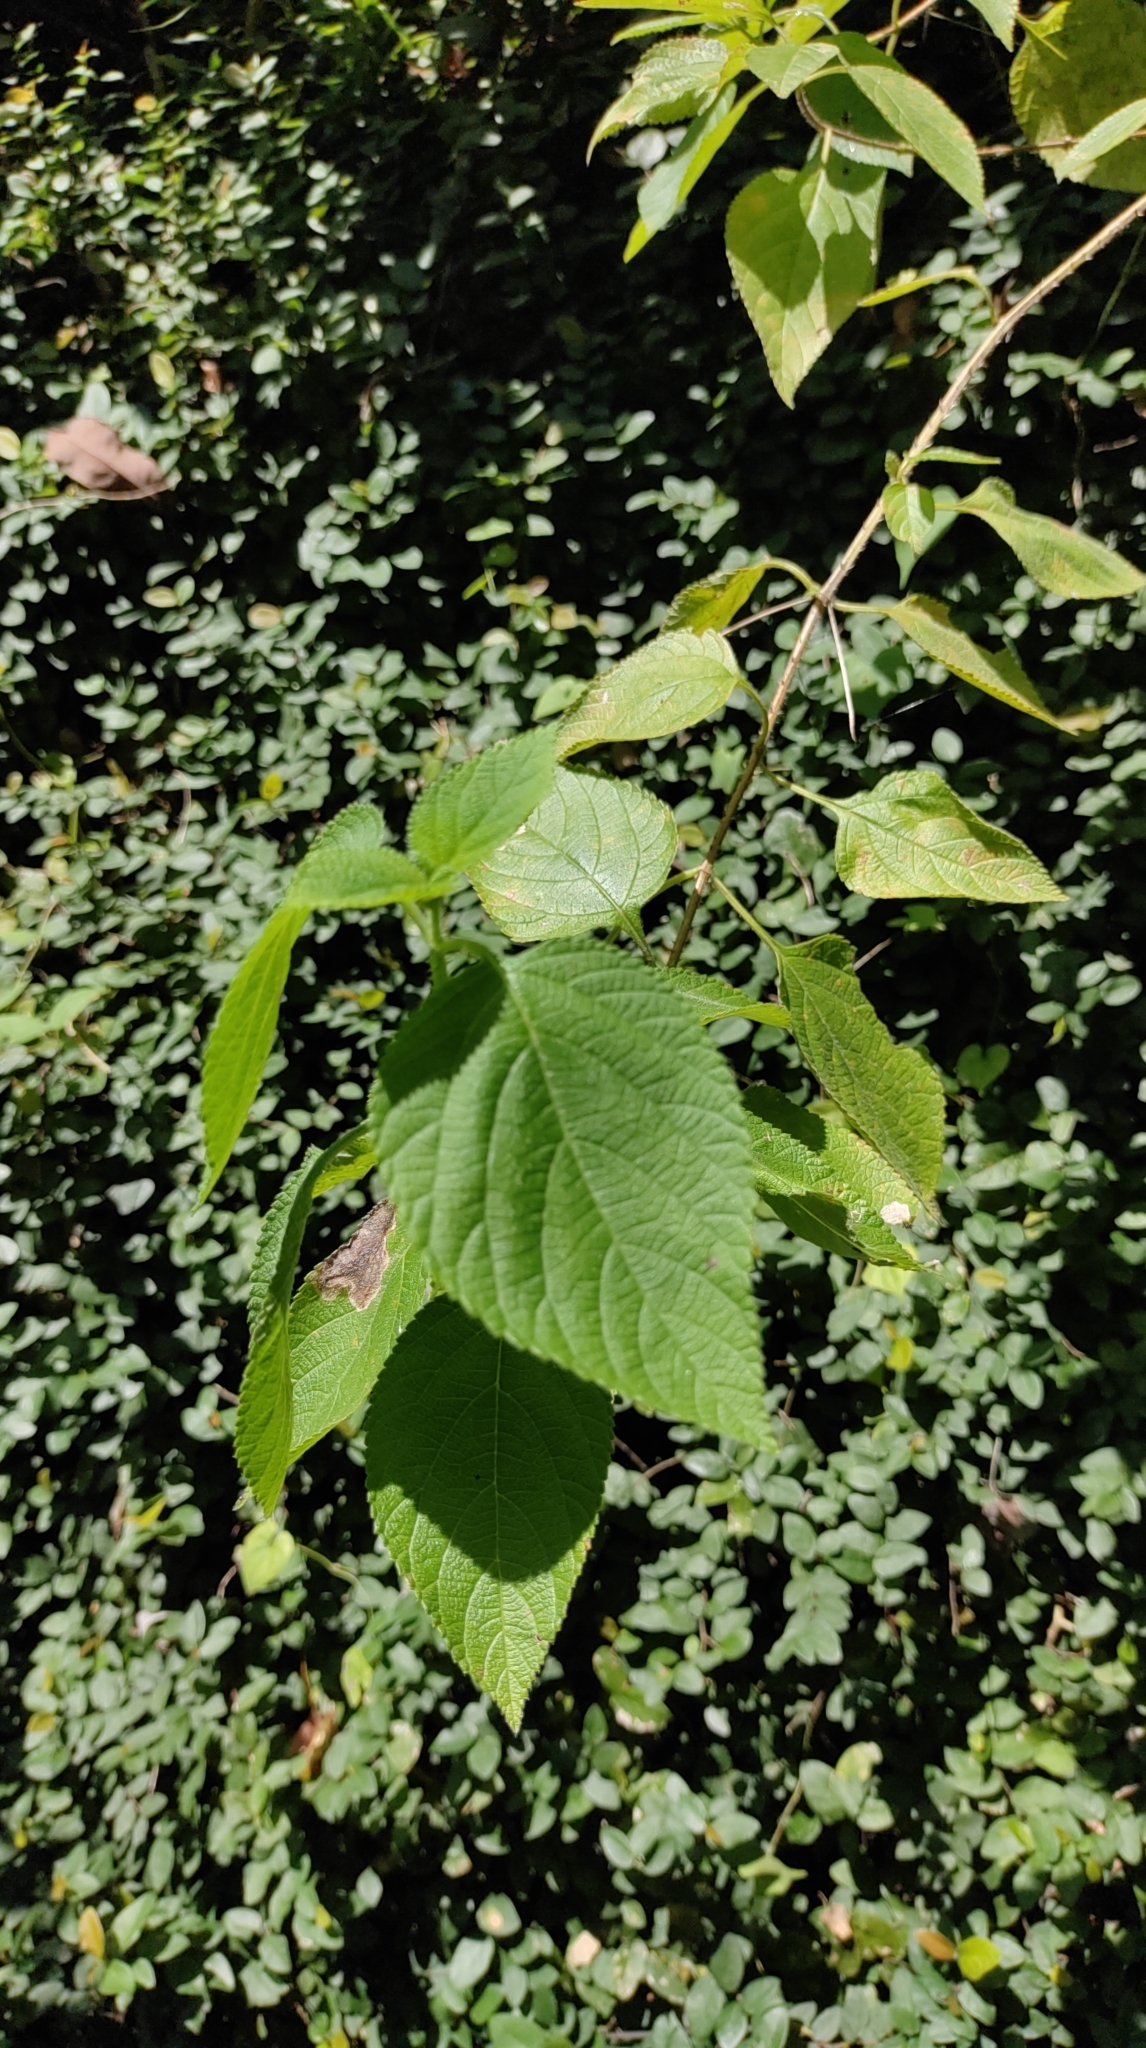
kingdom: Plantae
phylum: Tracheophyta
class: Magnoliopsida
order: Lamiales
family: Verbenaceae
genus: Lantana
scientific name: Lantana camara
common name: Lantana
